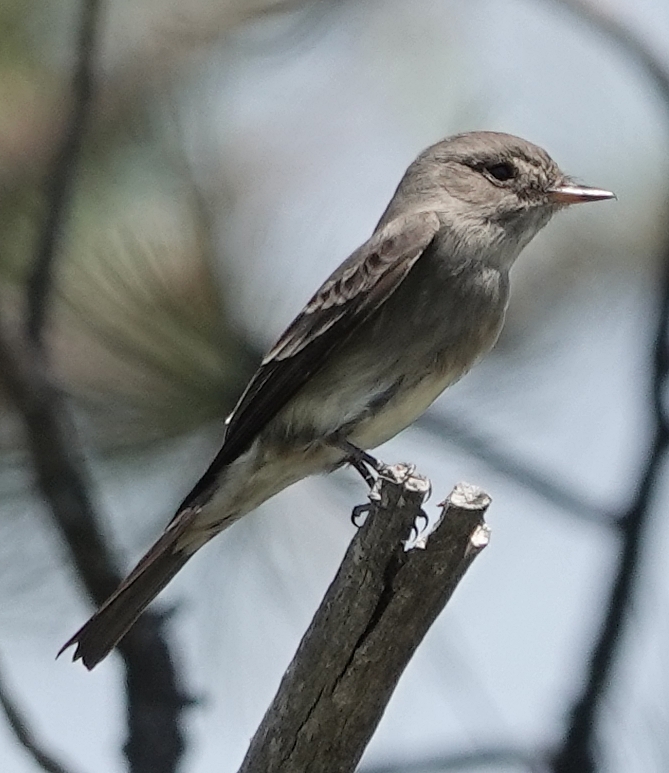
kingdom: Animalia
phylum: Chordata
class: Aves
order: Passeriformes
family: Tyrannidae
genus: Contopus
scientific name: Contopus sordidulus
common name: Western wood-pewee
